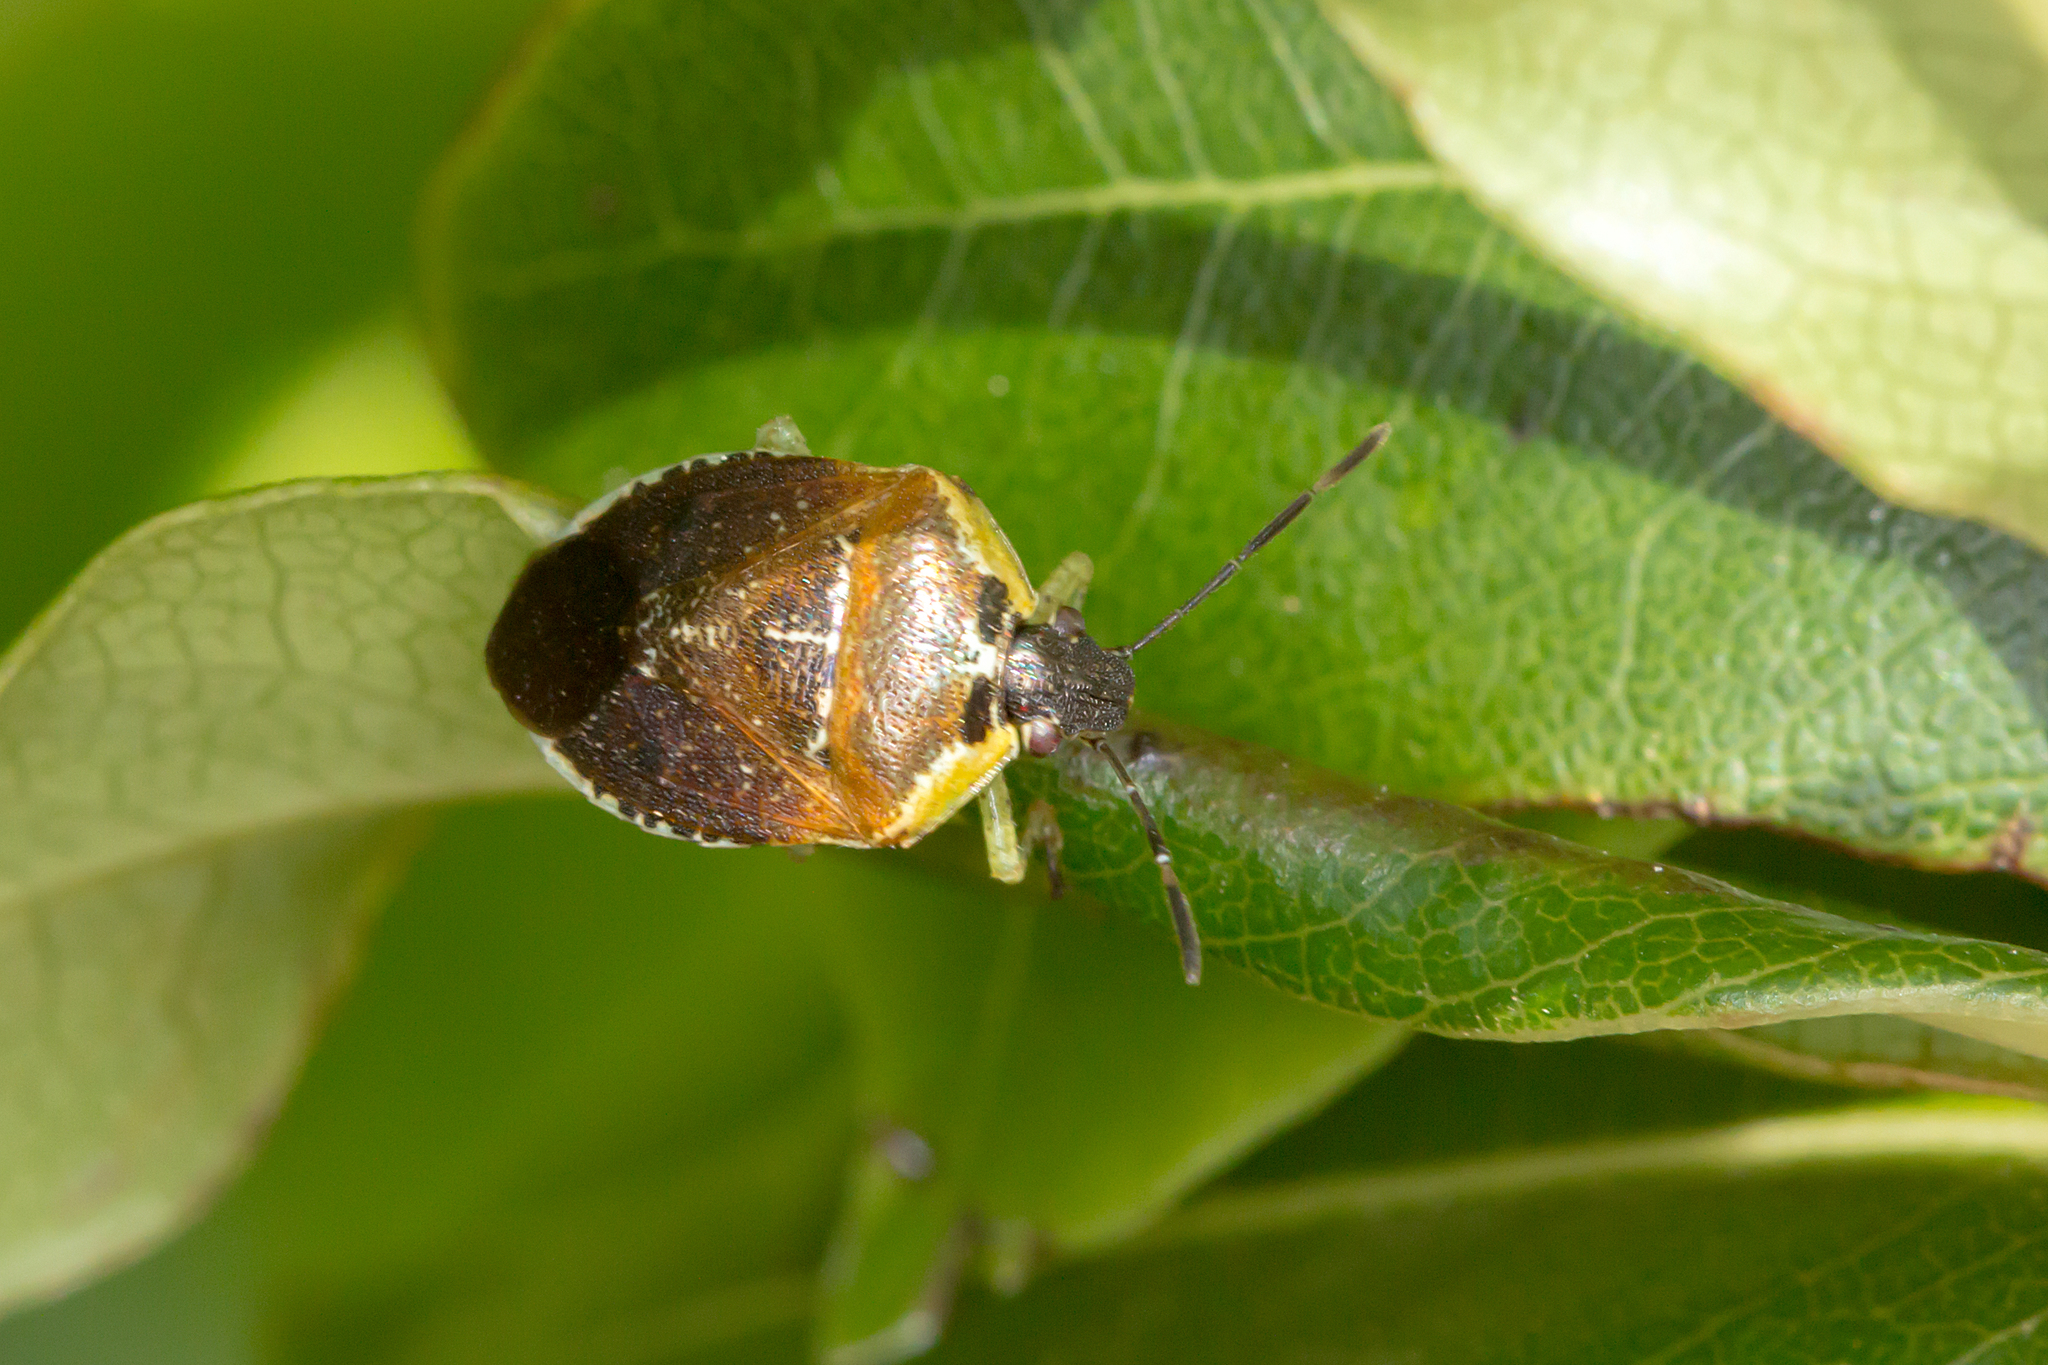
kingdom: Animalia
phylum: Arthropoda
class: Insecta
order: Hemiptera
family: Pentatomidae
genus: Monteithiella
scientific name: Monteithiella
